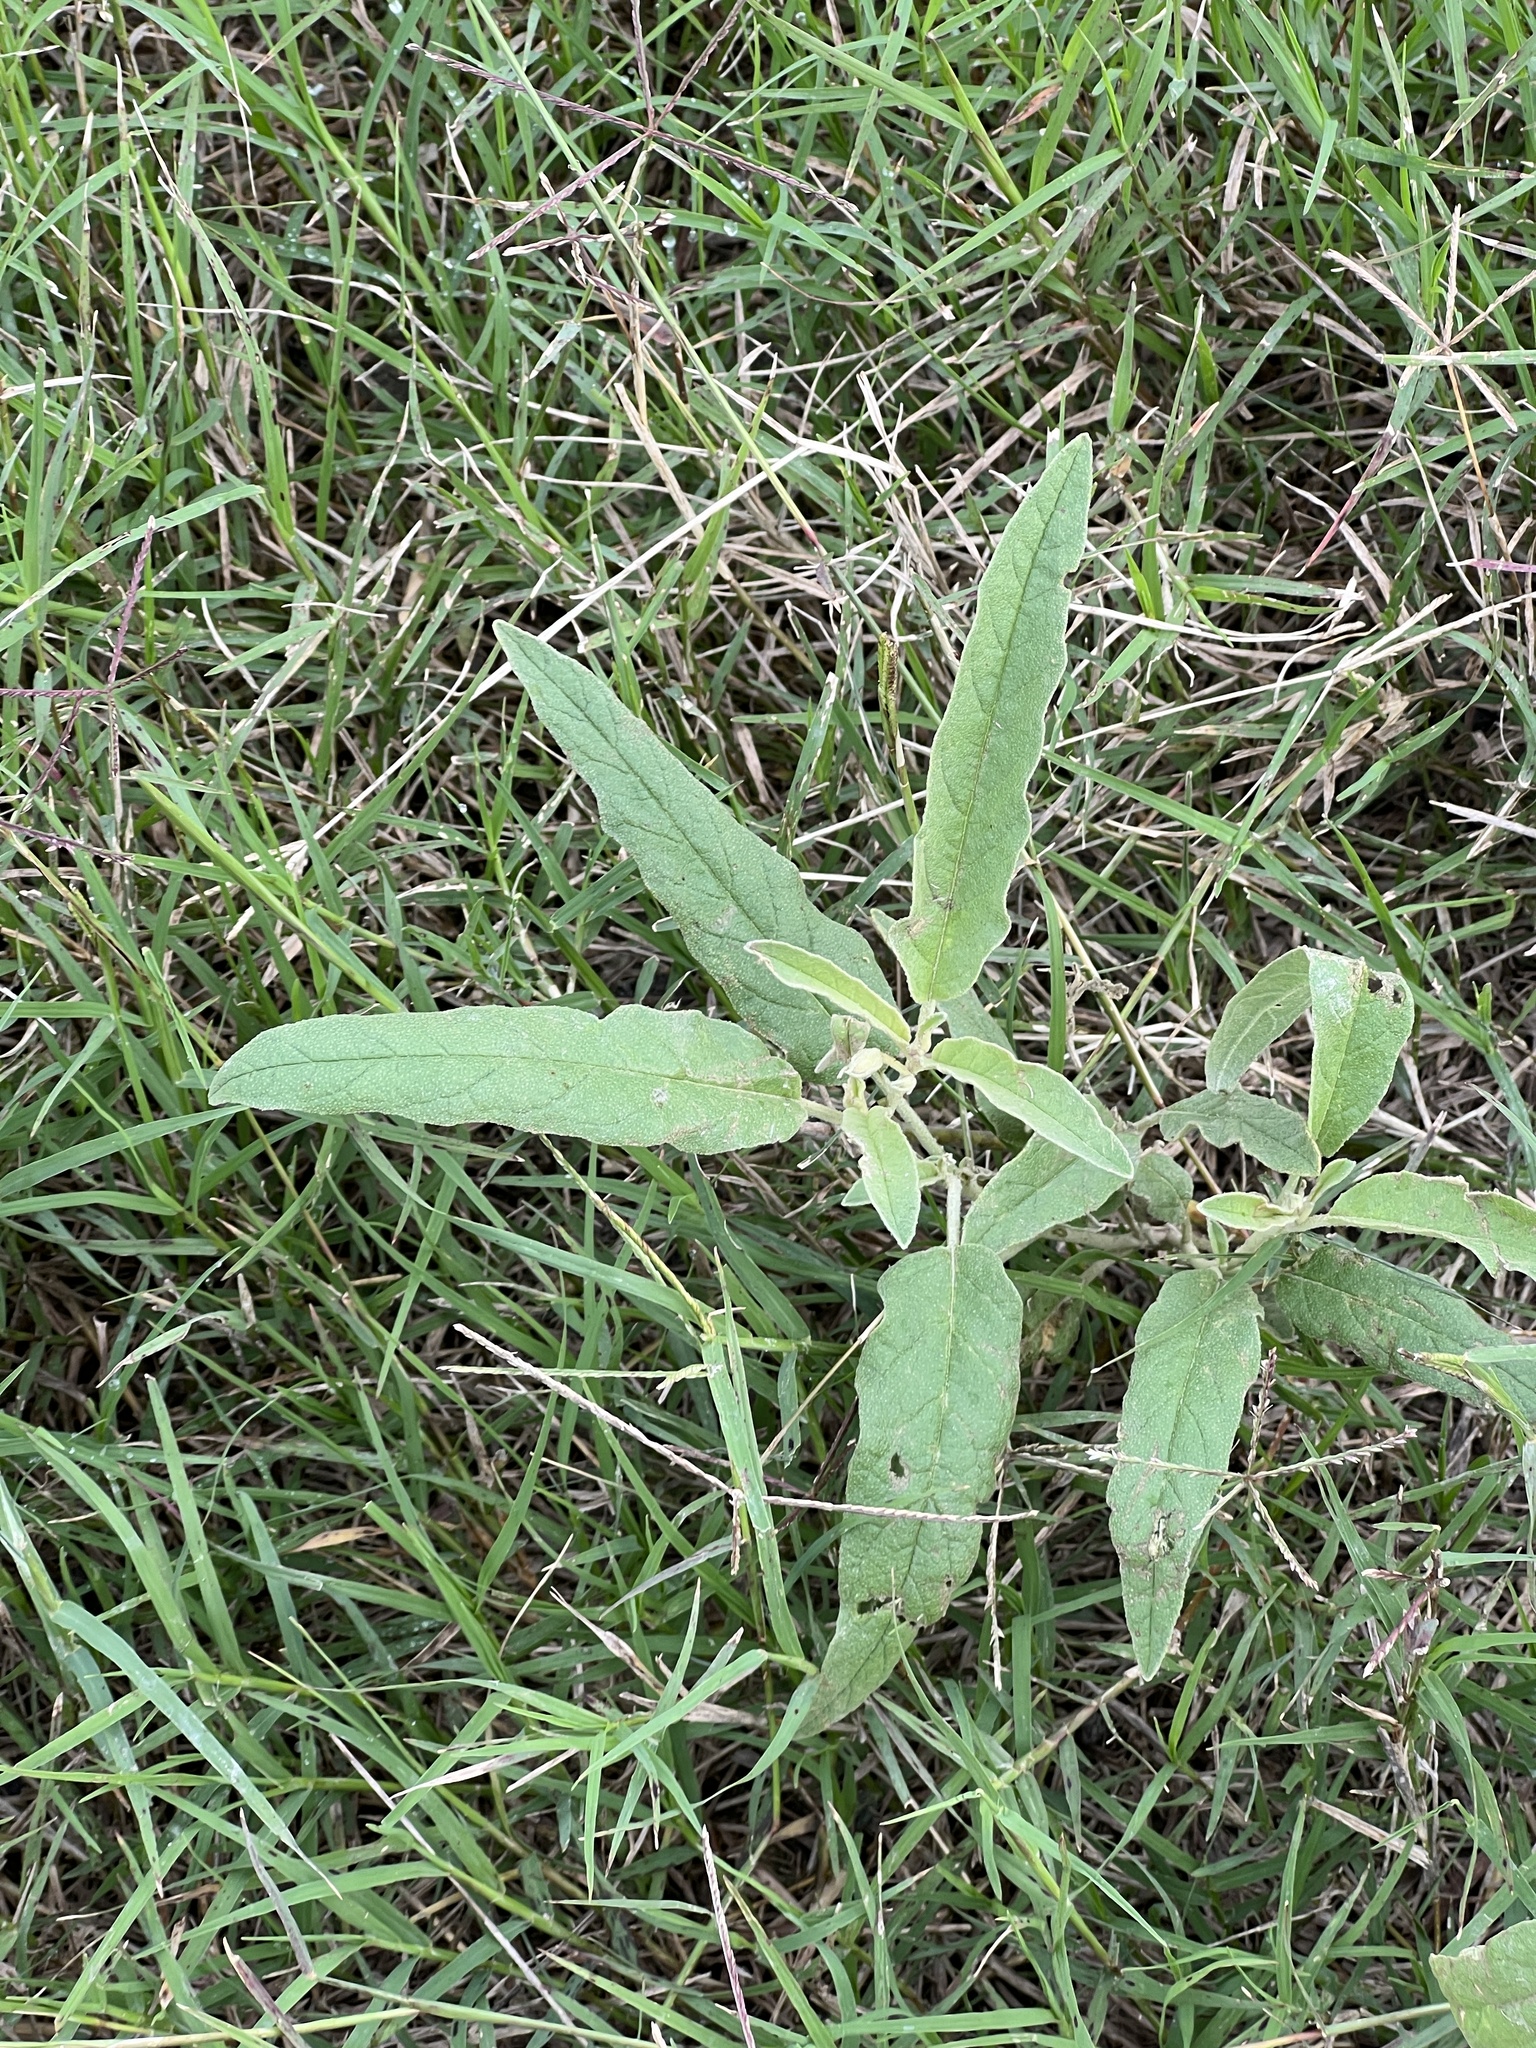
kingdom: Plantae
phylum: Tracheophyta
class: Magnoliopsida
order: Solanales
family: Solanaceae
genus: Solanum
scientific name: Solanum elaeagnifolium
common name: Silverleaf nightshade
